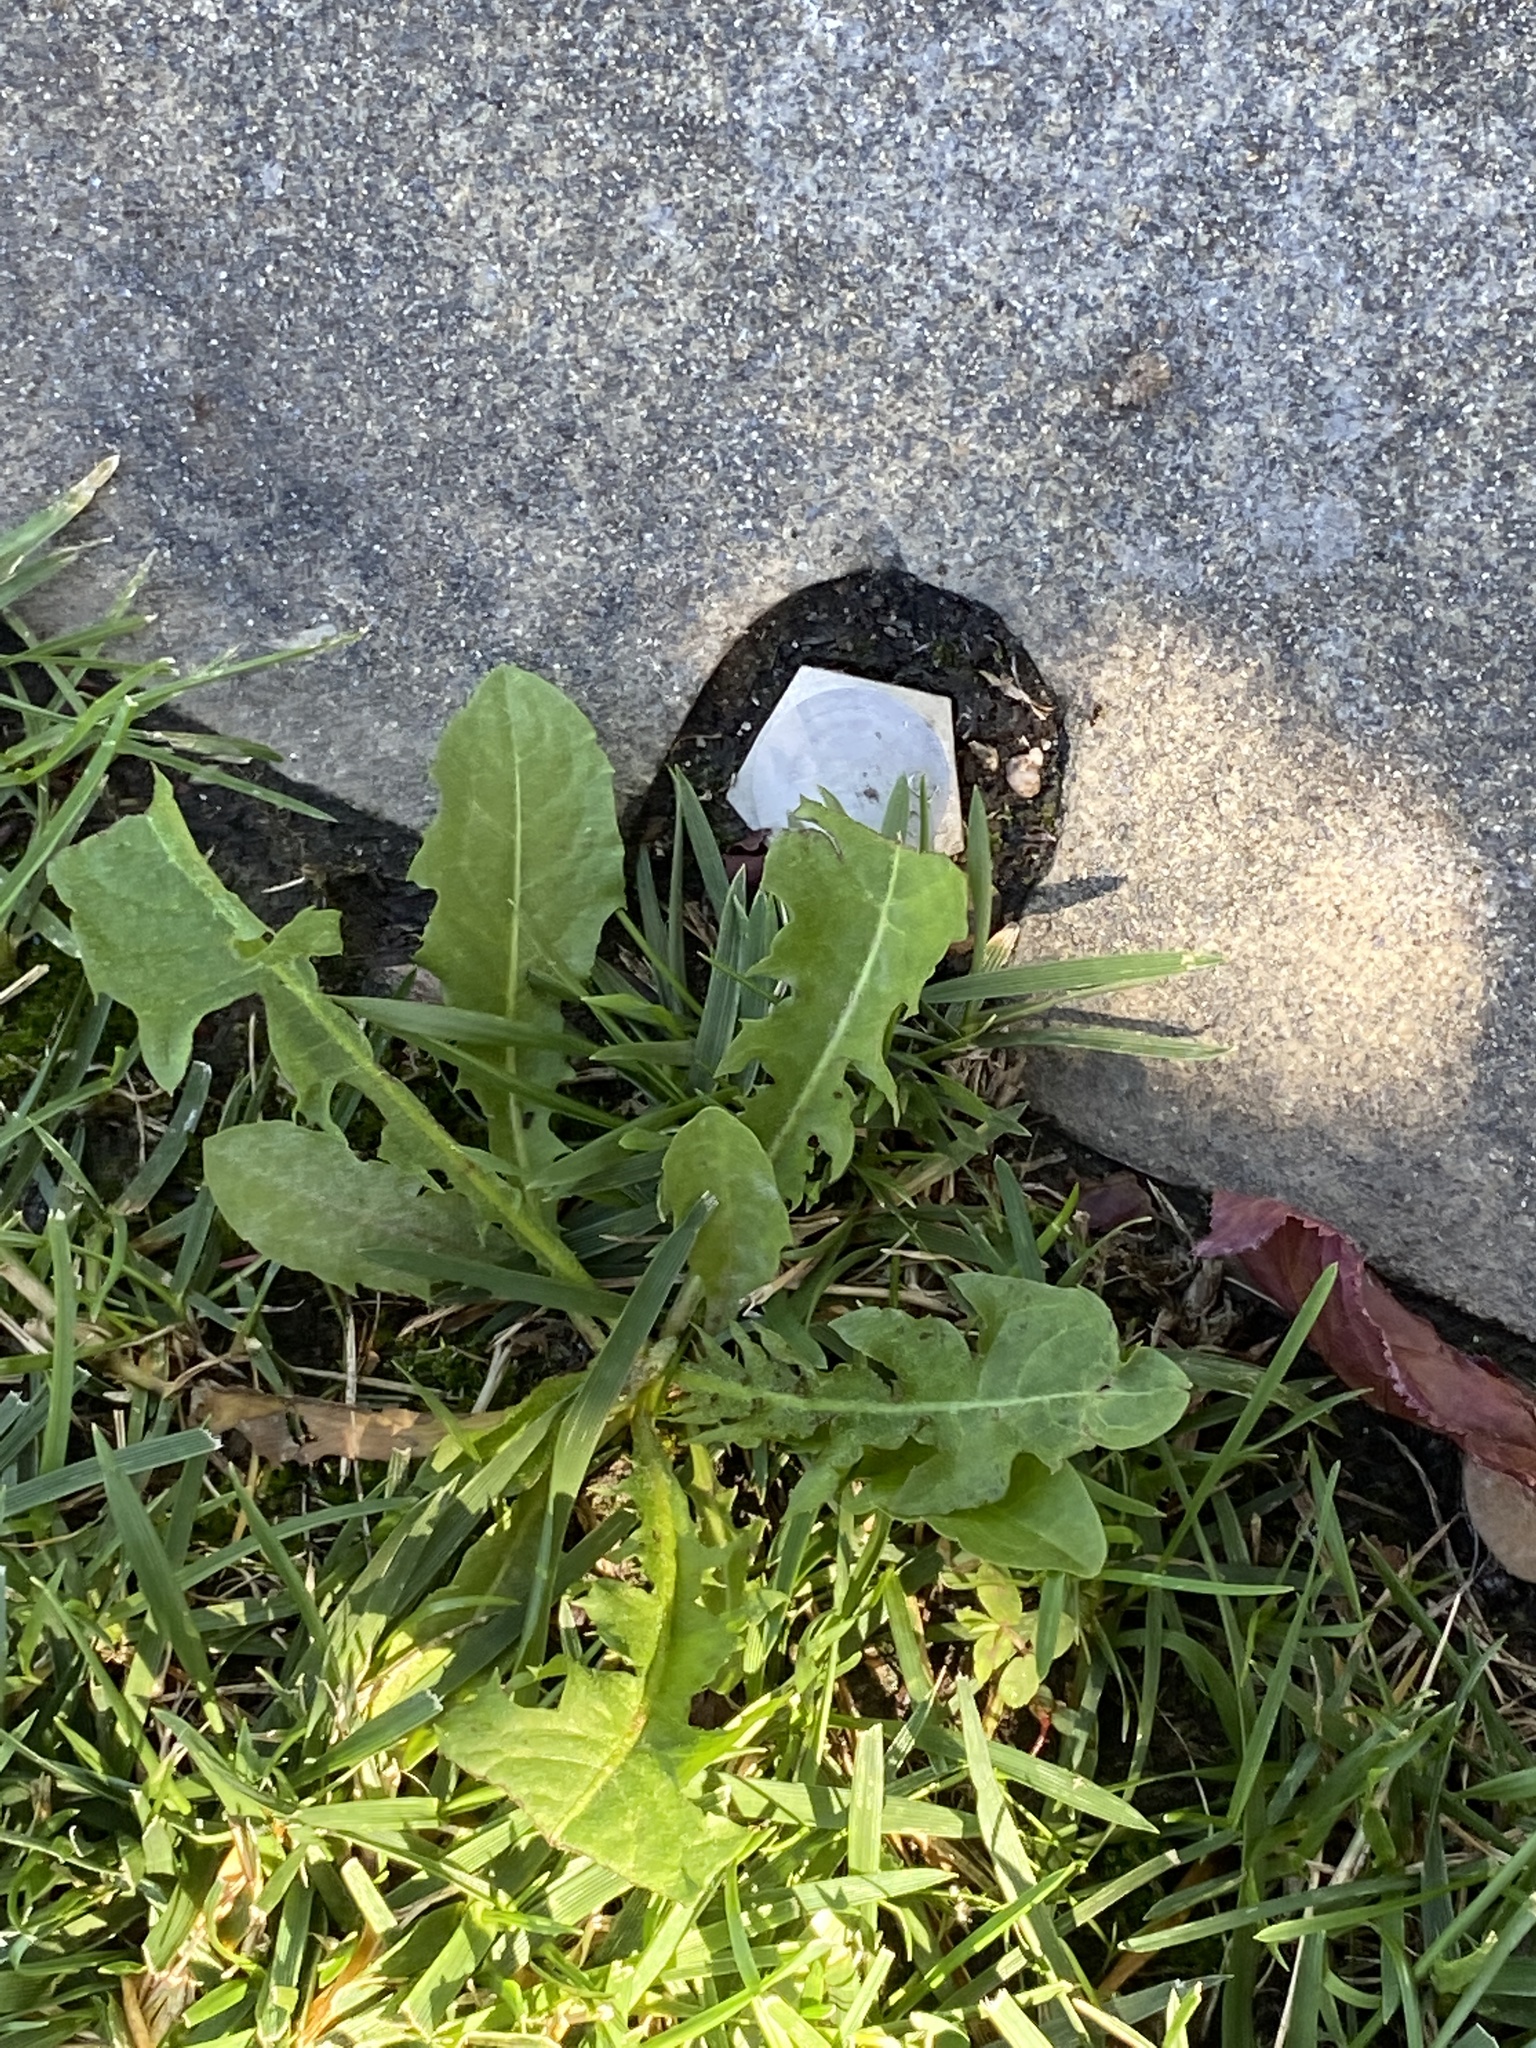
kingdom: Plantae
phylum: Tracheophyta
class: Magnoliopsida
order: Asterales
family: Asteraceae
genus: Taraxacum
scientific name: Taraxacum officinale
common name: Common dandelion
